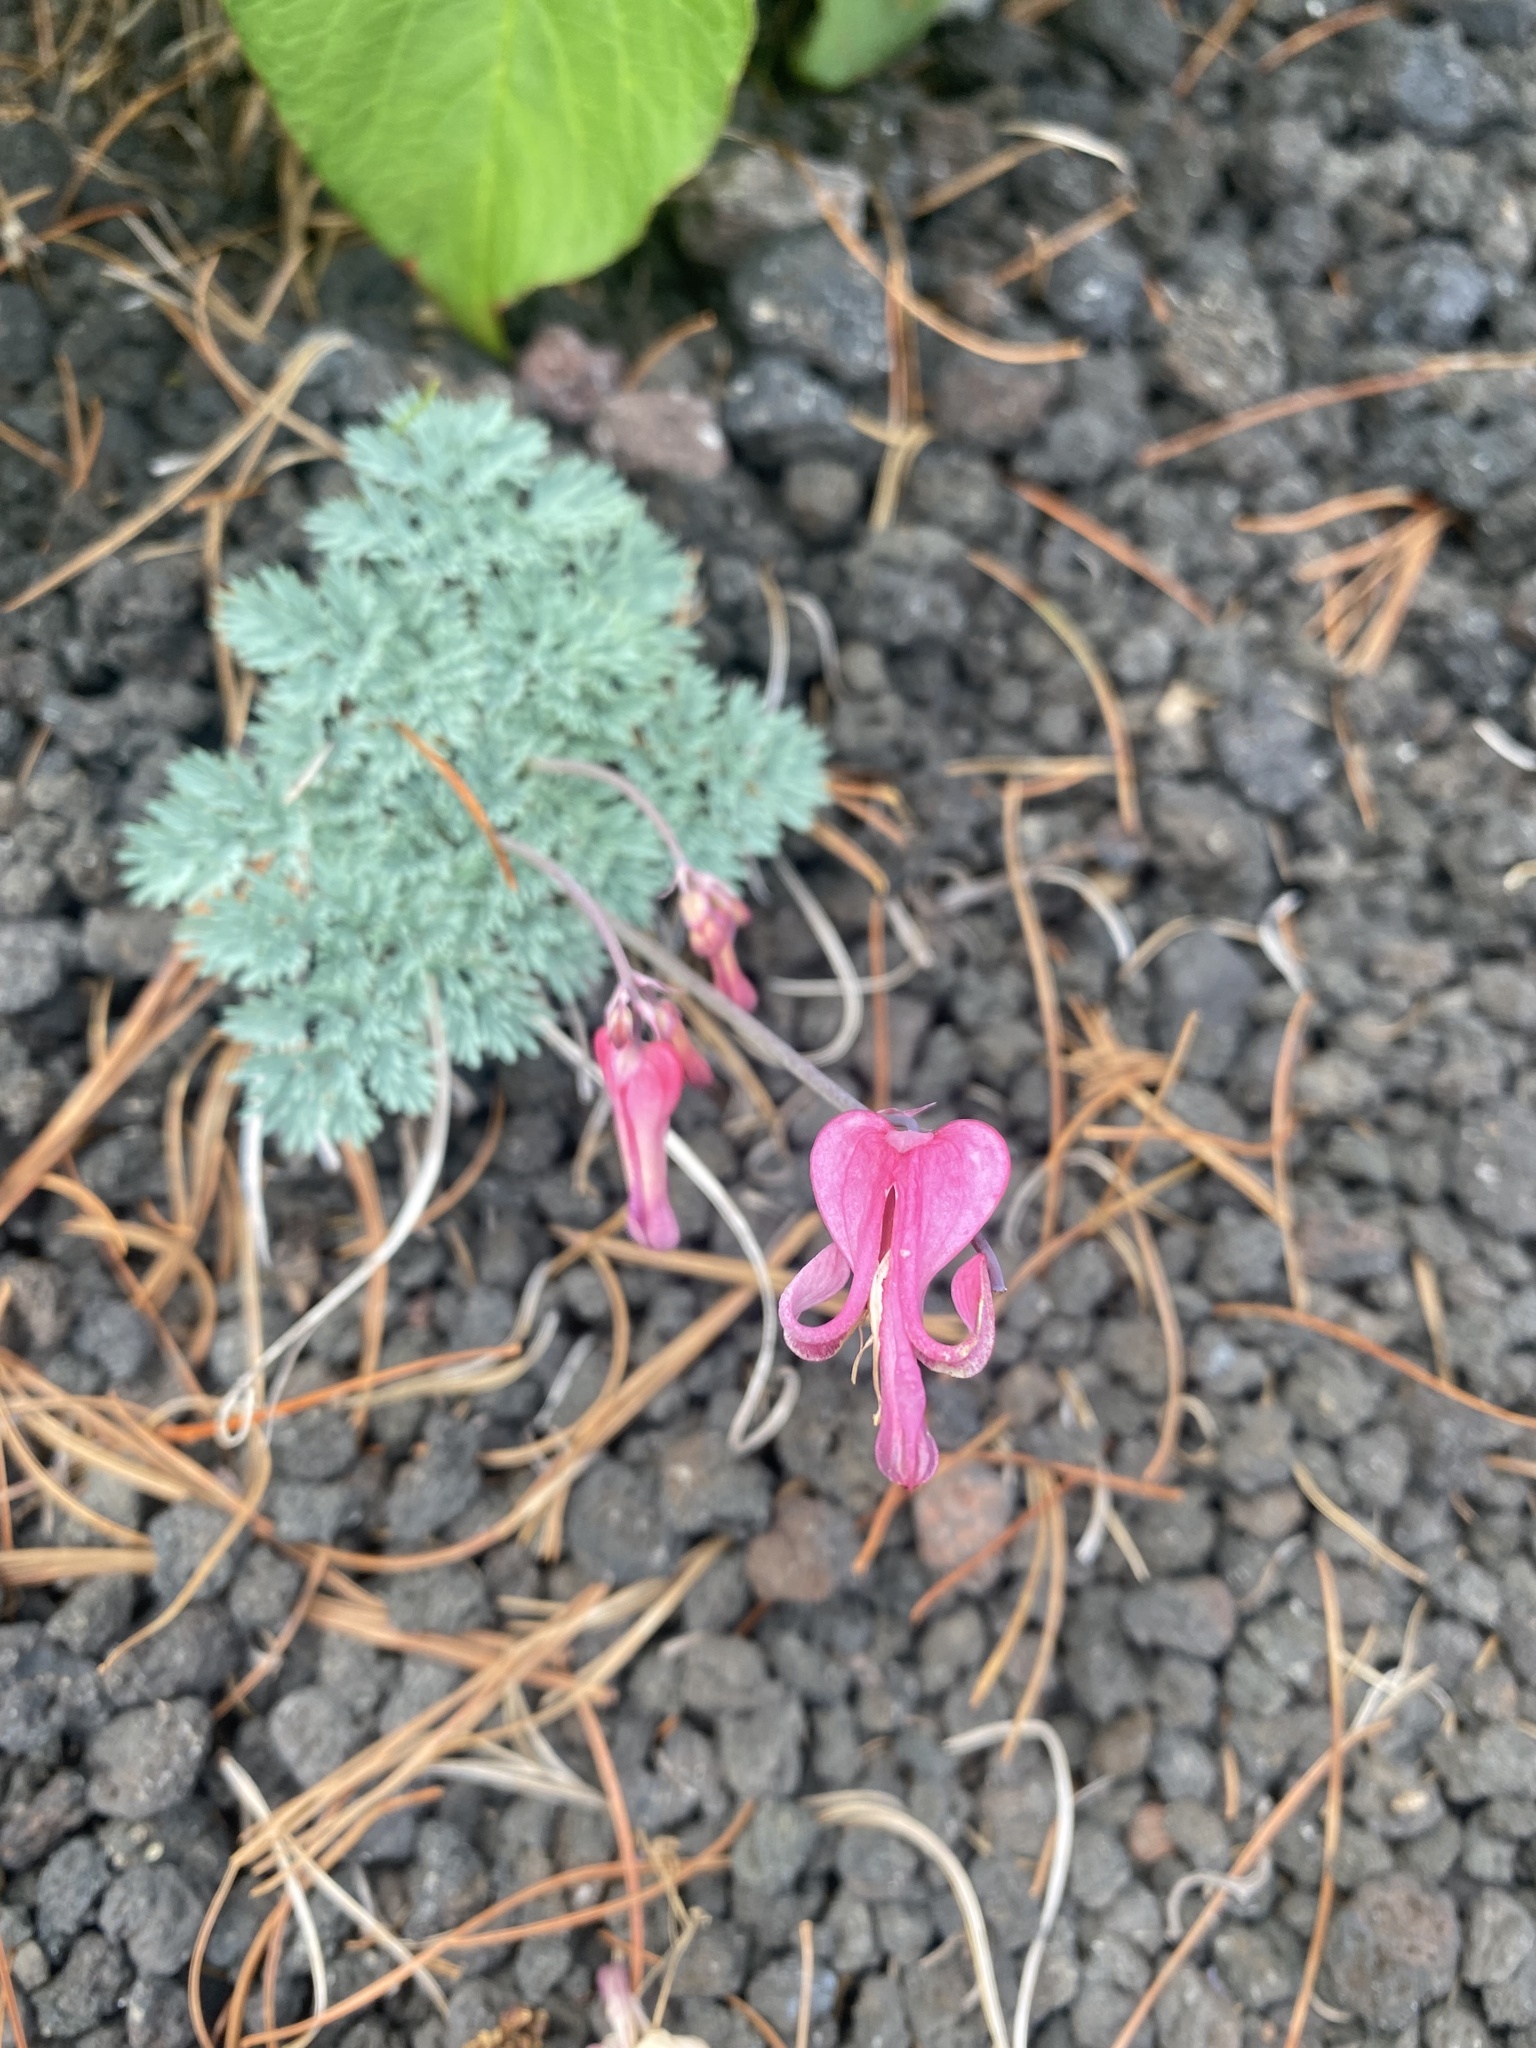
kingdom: Plantae
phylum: Tracheophyta
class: Magnoliopsida
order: Ranunculales
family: Papaveraceae
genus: Dicentra
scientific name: Dicentra peregrina
